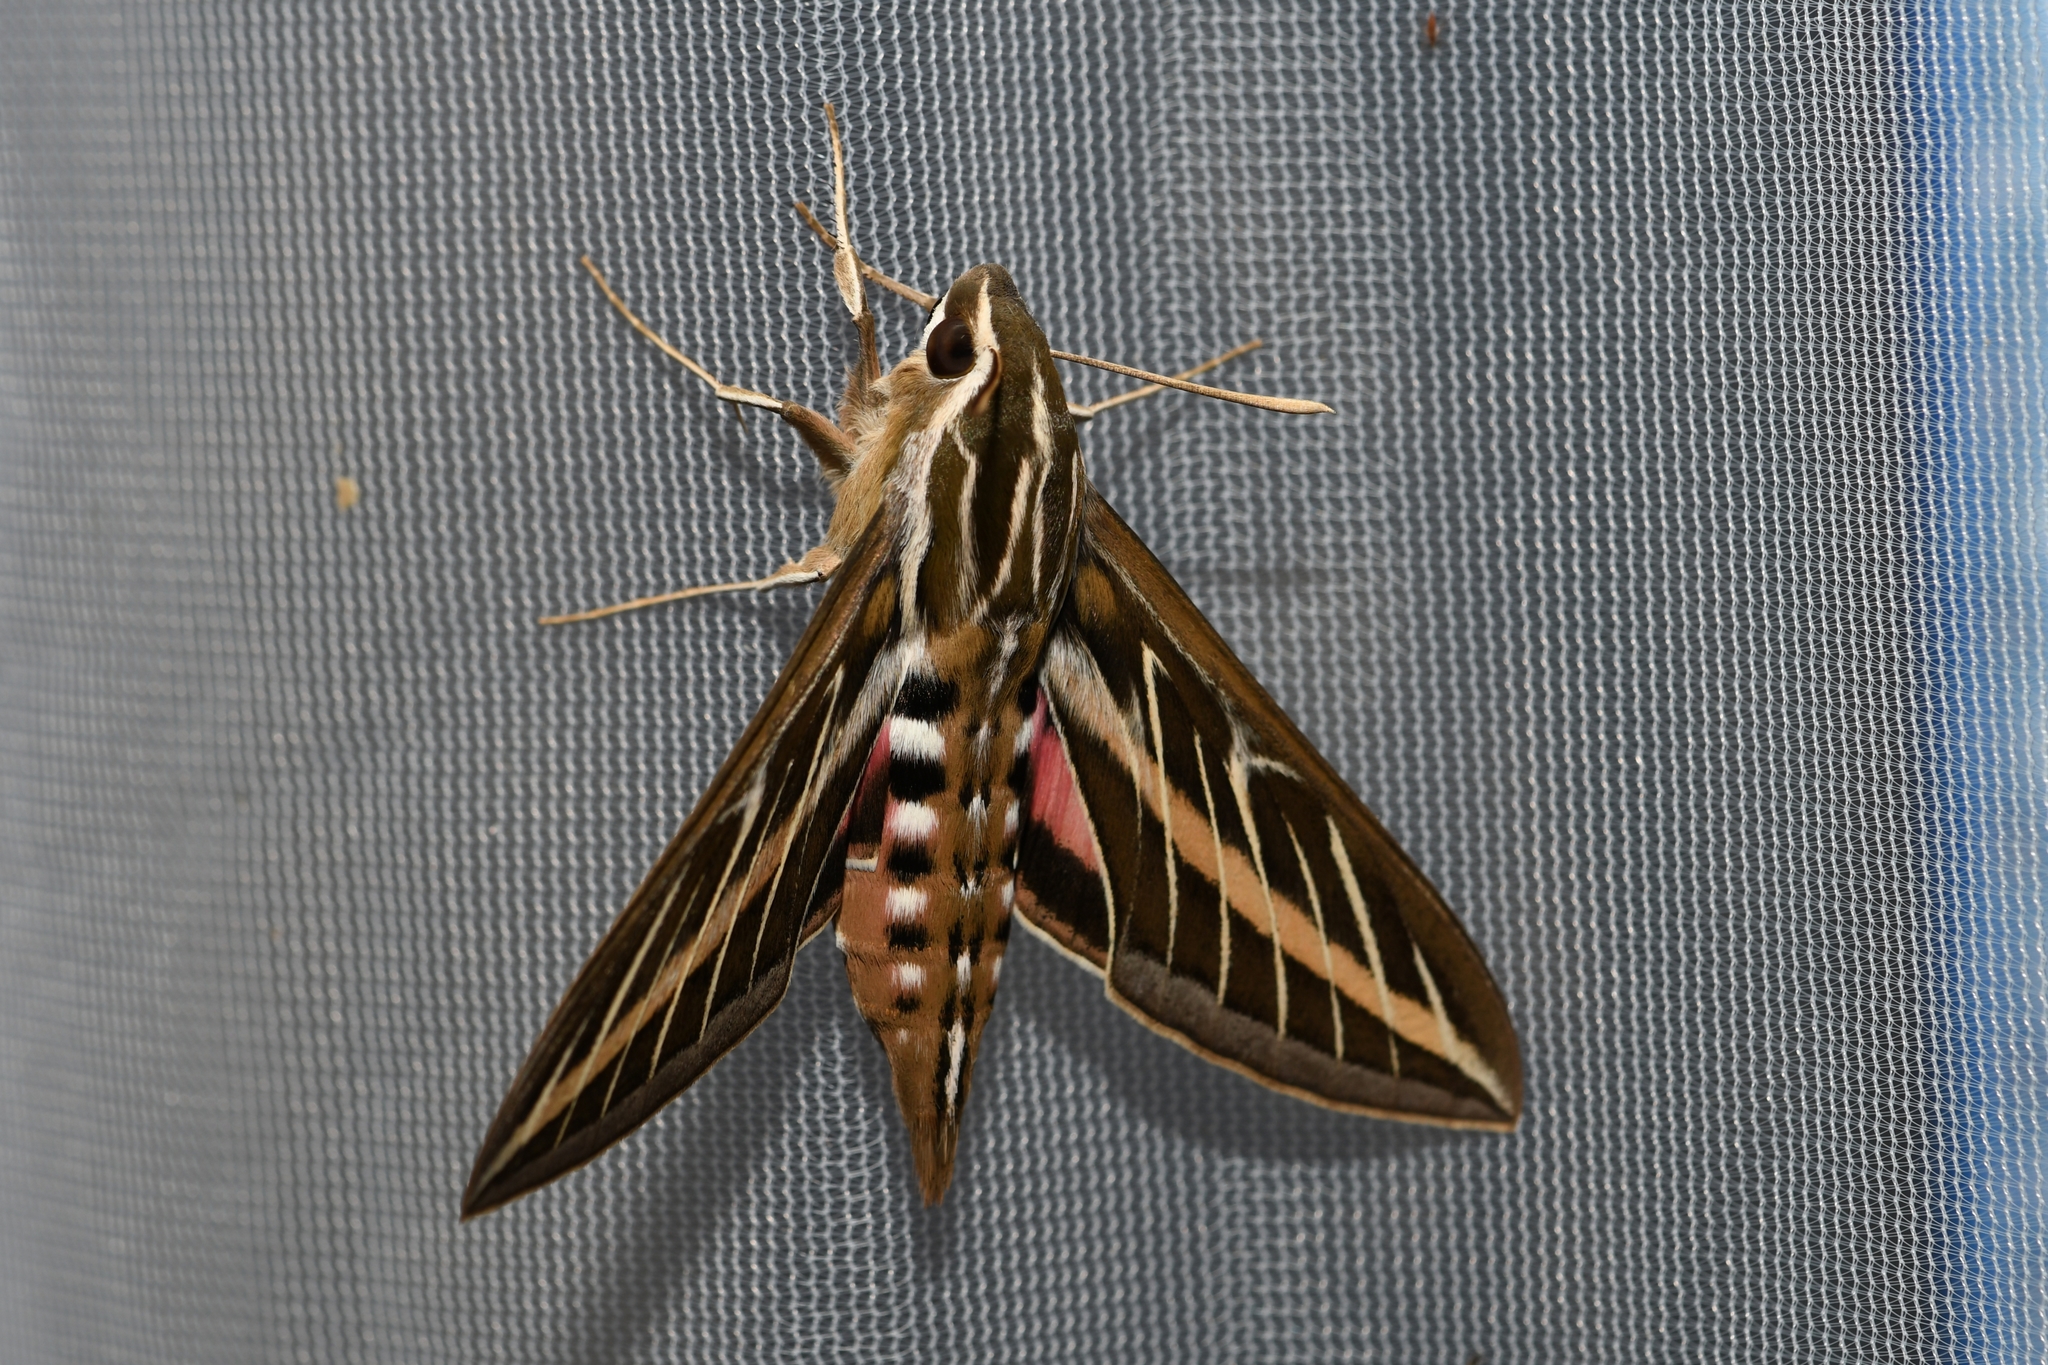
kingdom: Animalia
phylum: Arthropoda
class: Insecta
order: Lepidoptera
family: Sphingidae
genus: Hyles
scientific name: Hyles lineata
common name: White-lined sphinx
